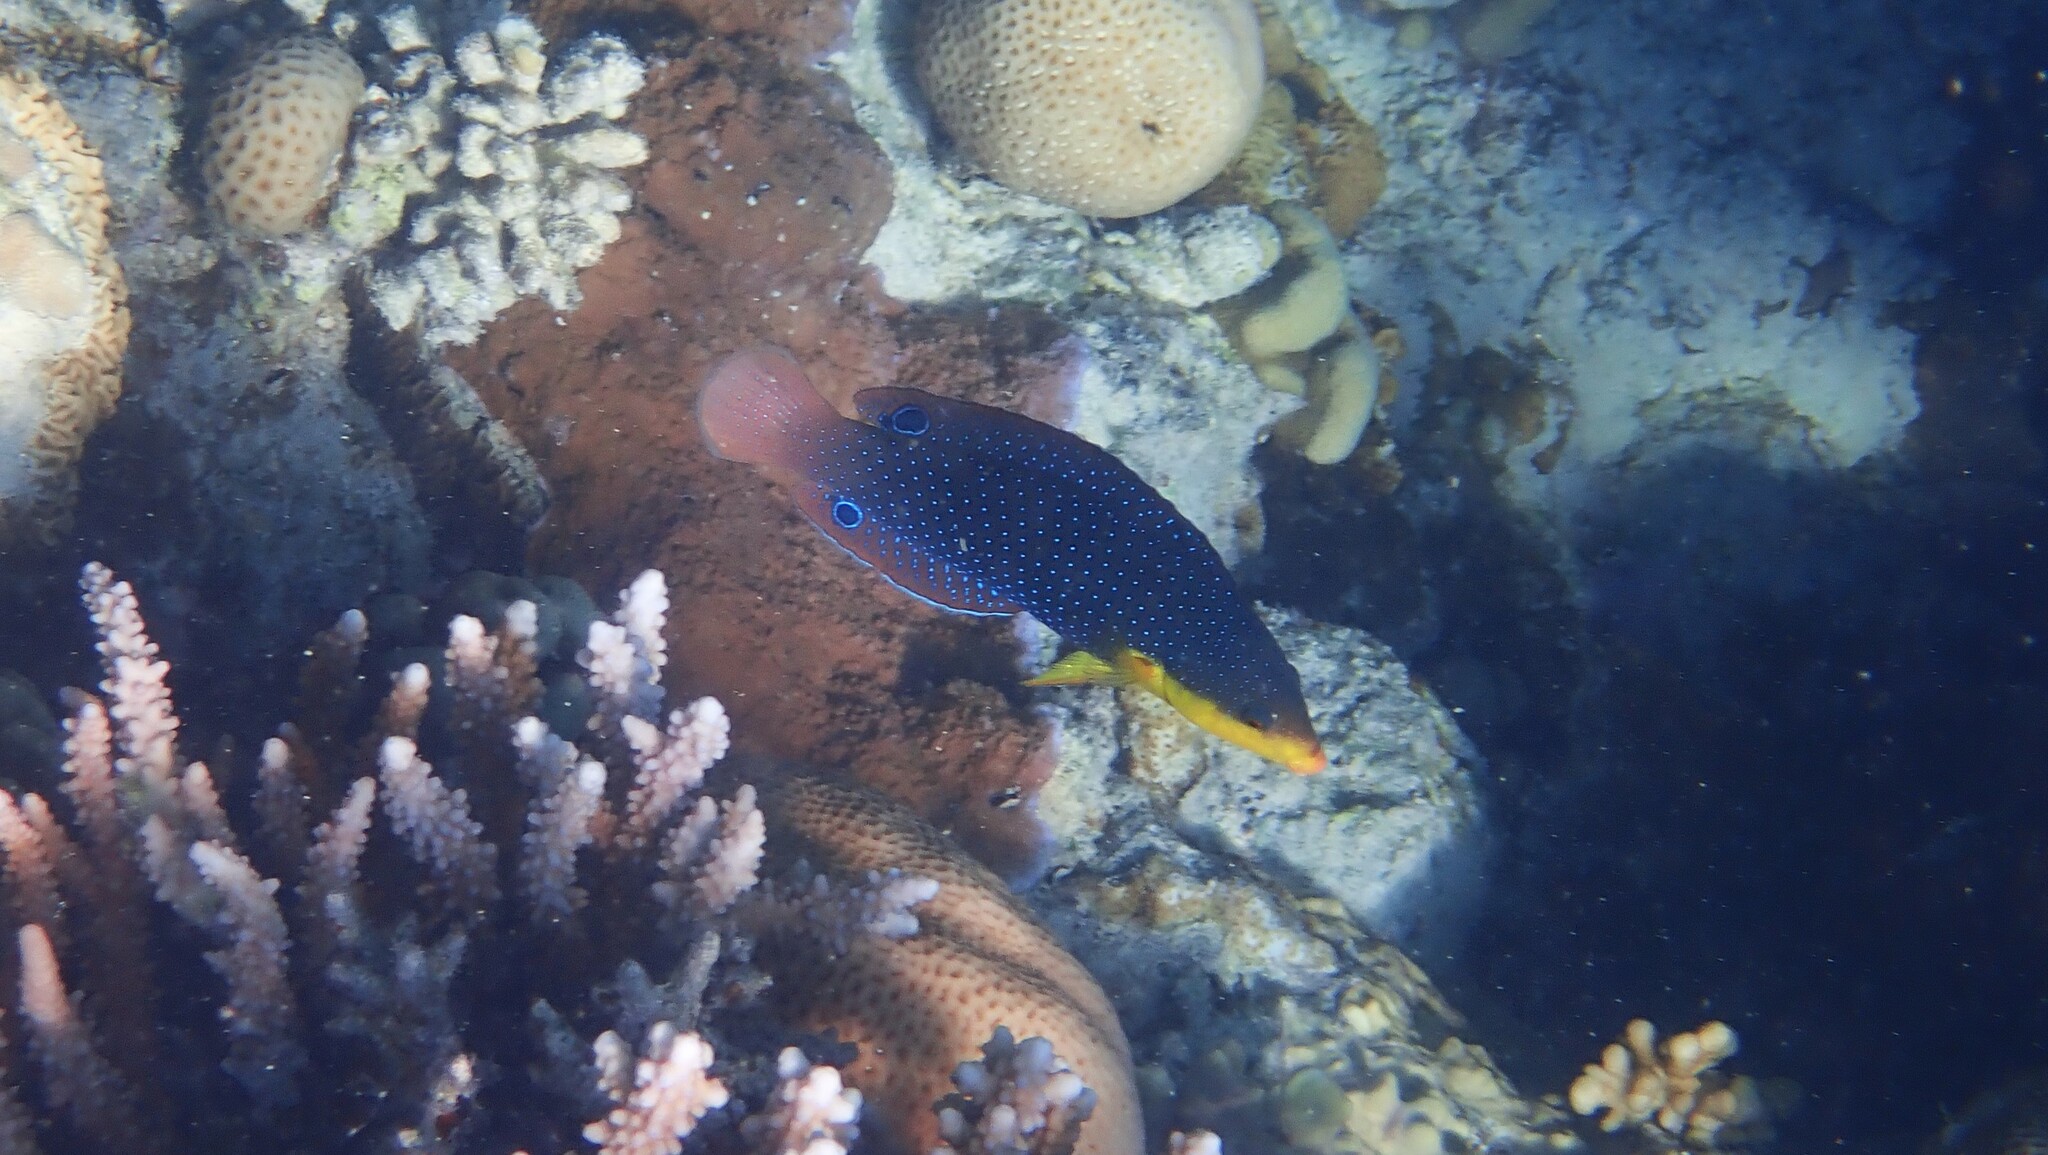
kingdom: Animalia
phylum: Chordata
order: Perciformes
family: Labridae
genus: Anampses
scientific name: Anampses twistii
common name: Yellowbreasted wrasse
